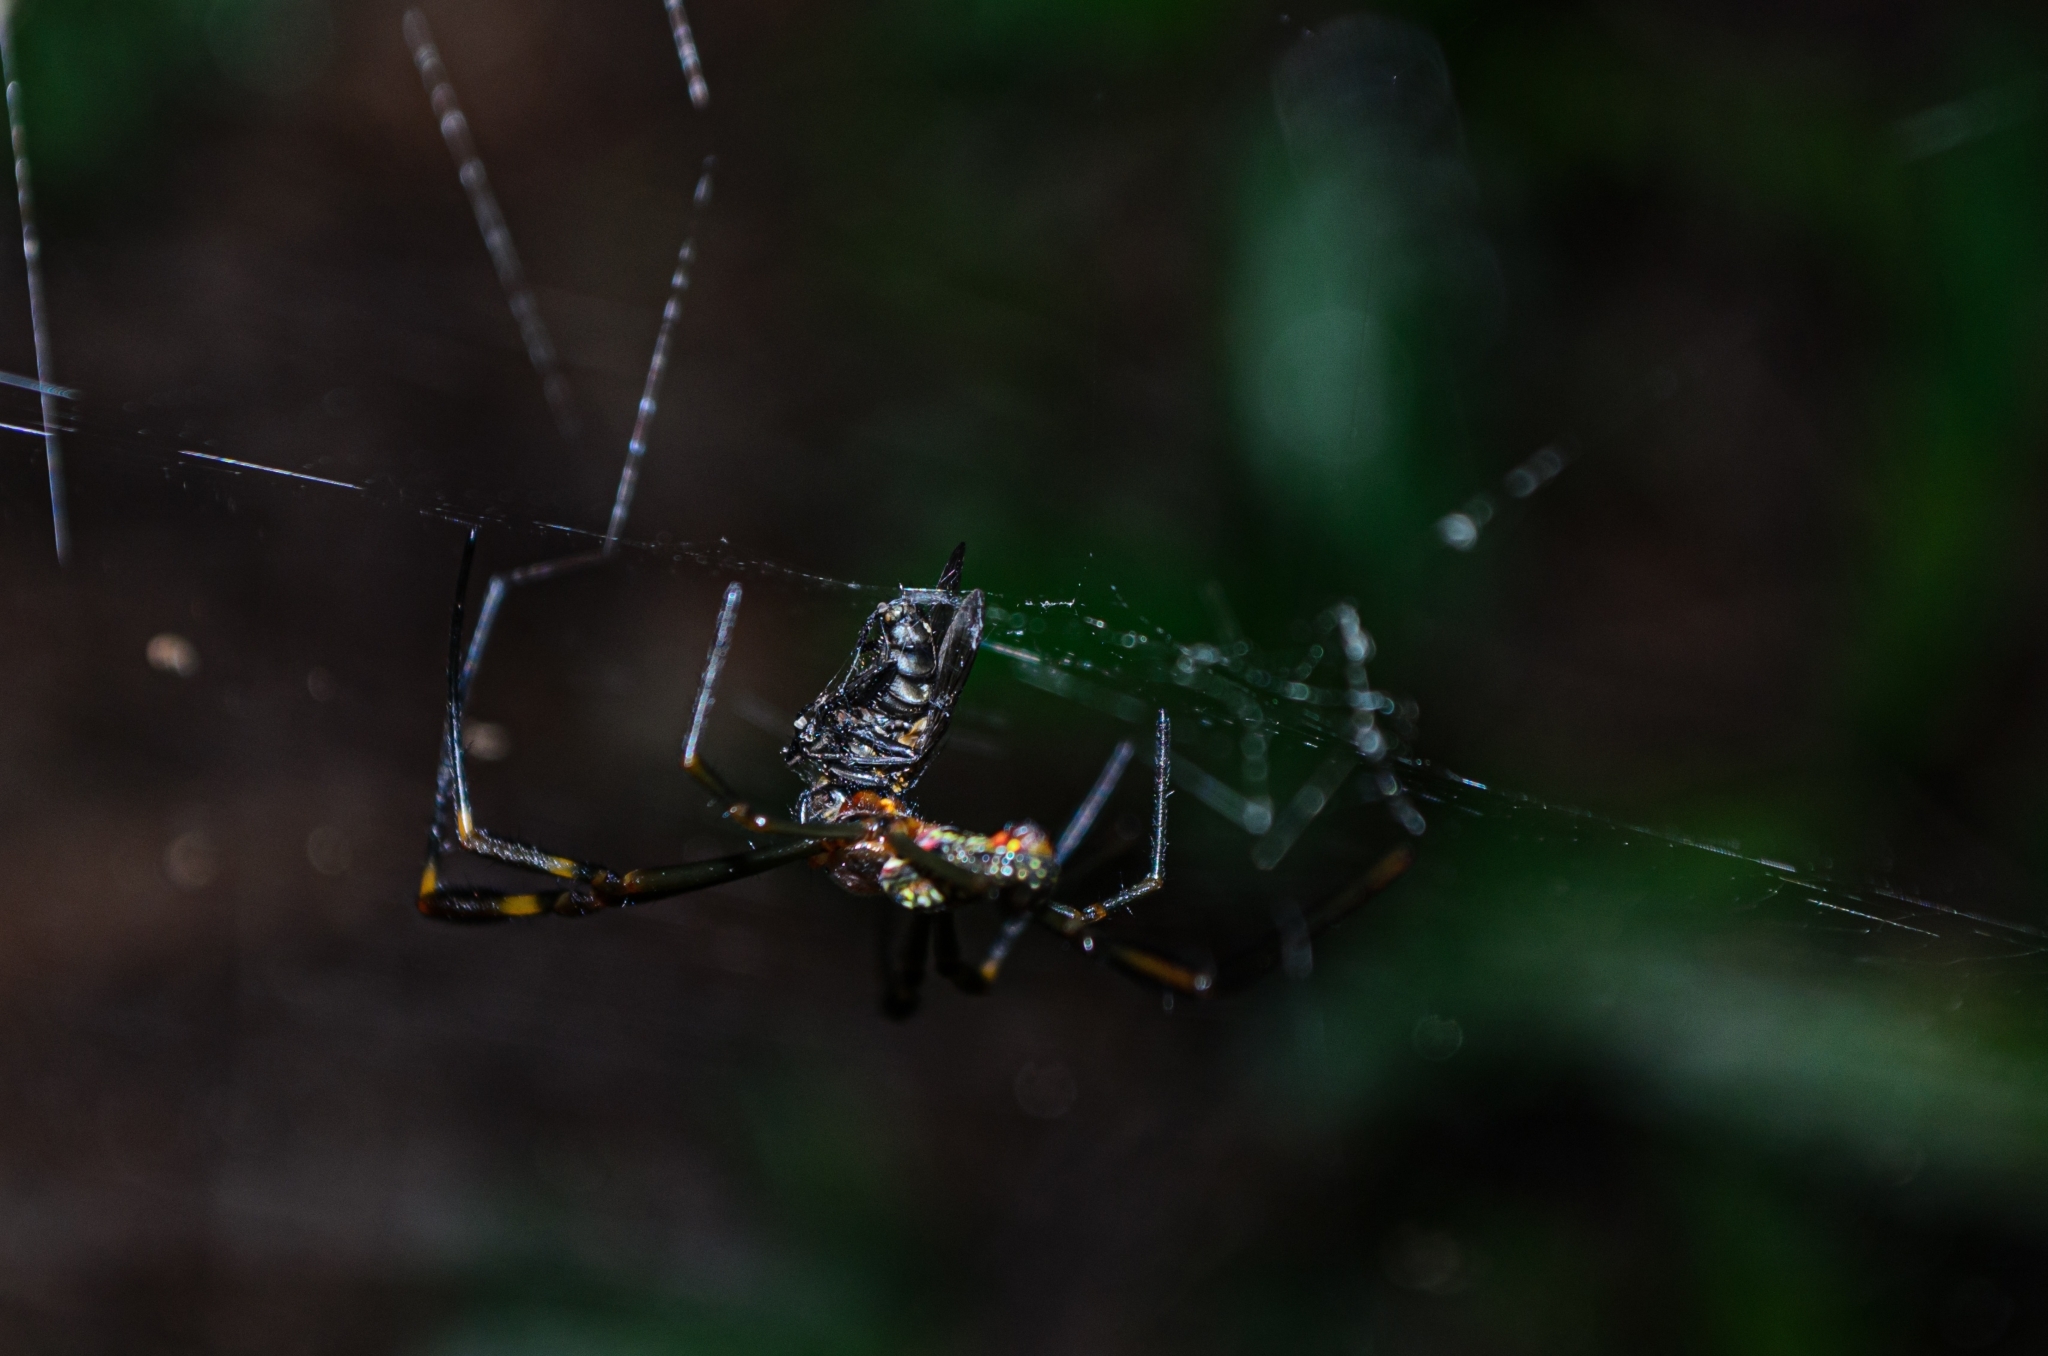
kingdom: Animalia
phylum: Arthropoda
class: Arachnida
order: Araneae
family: Araneidae
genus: Trichonephila
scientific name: Trichonephila clavipes
